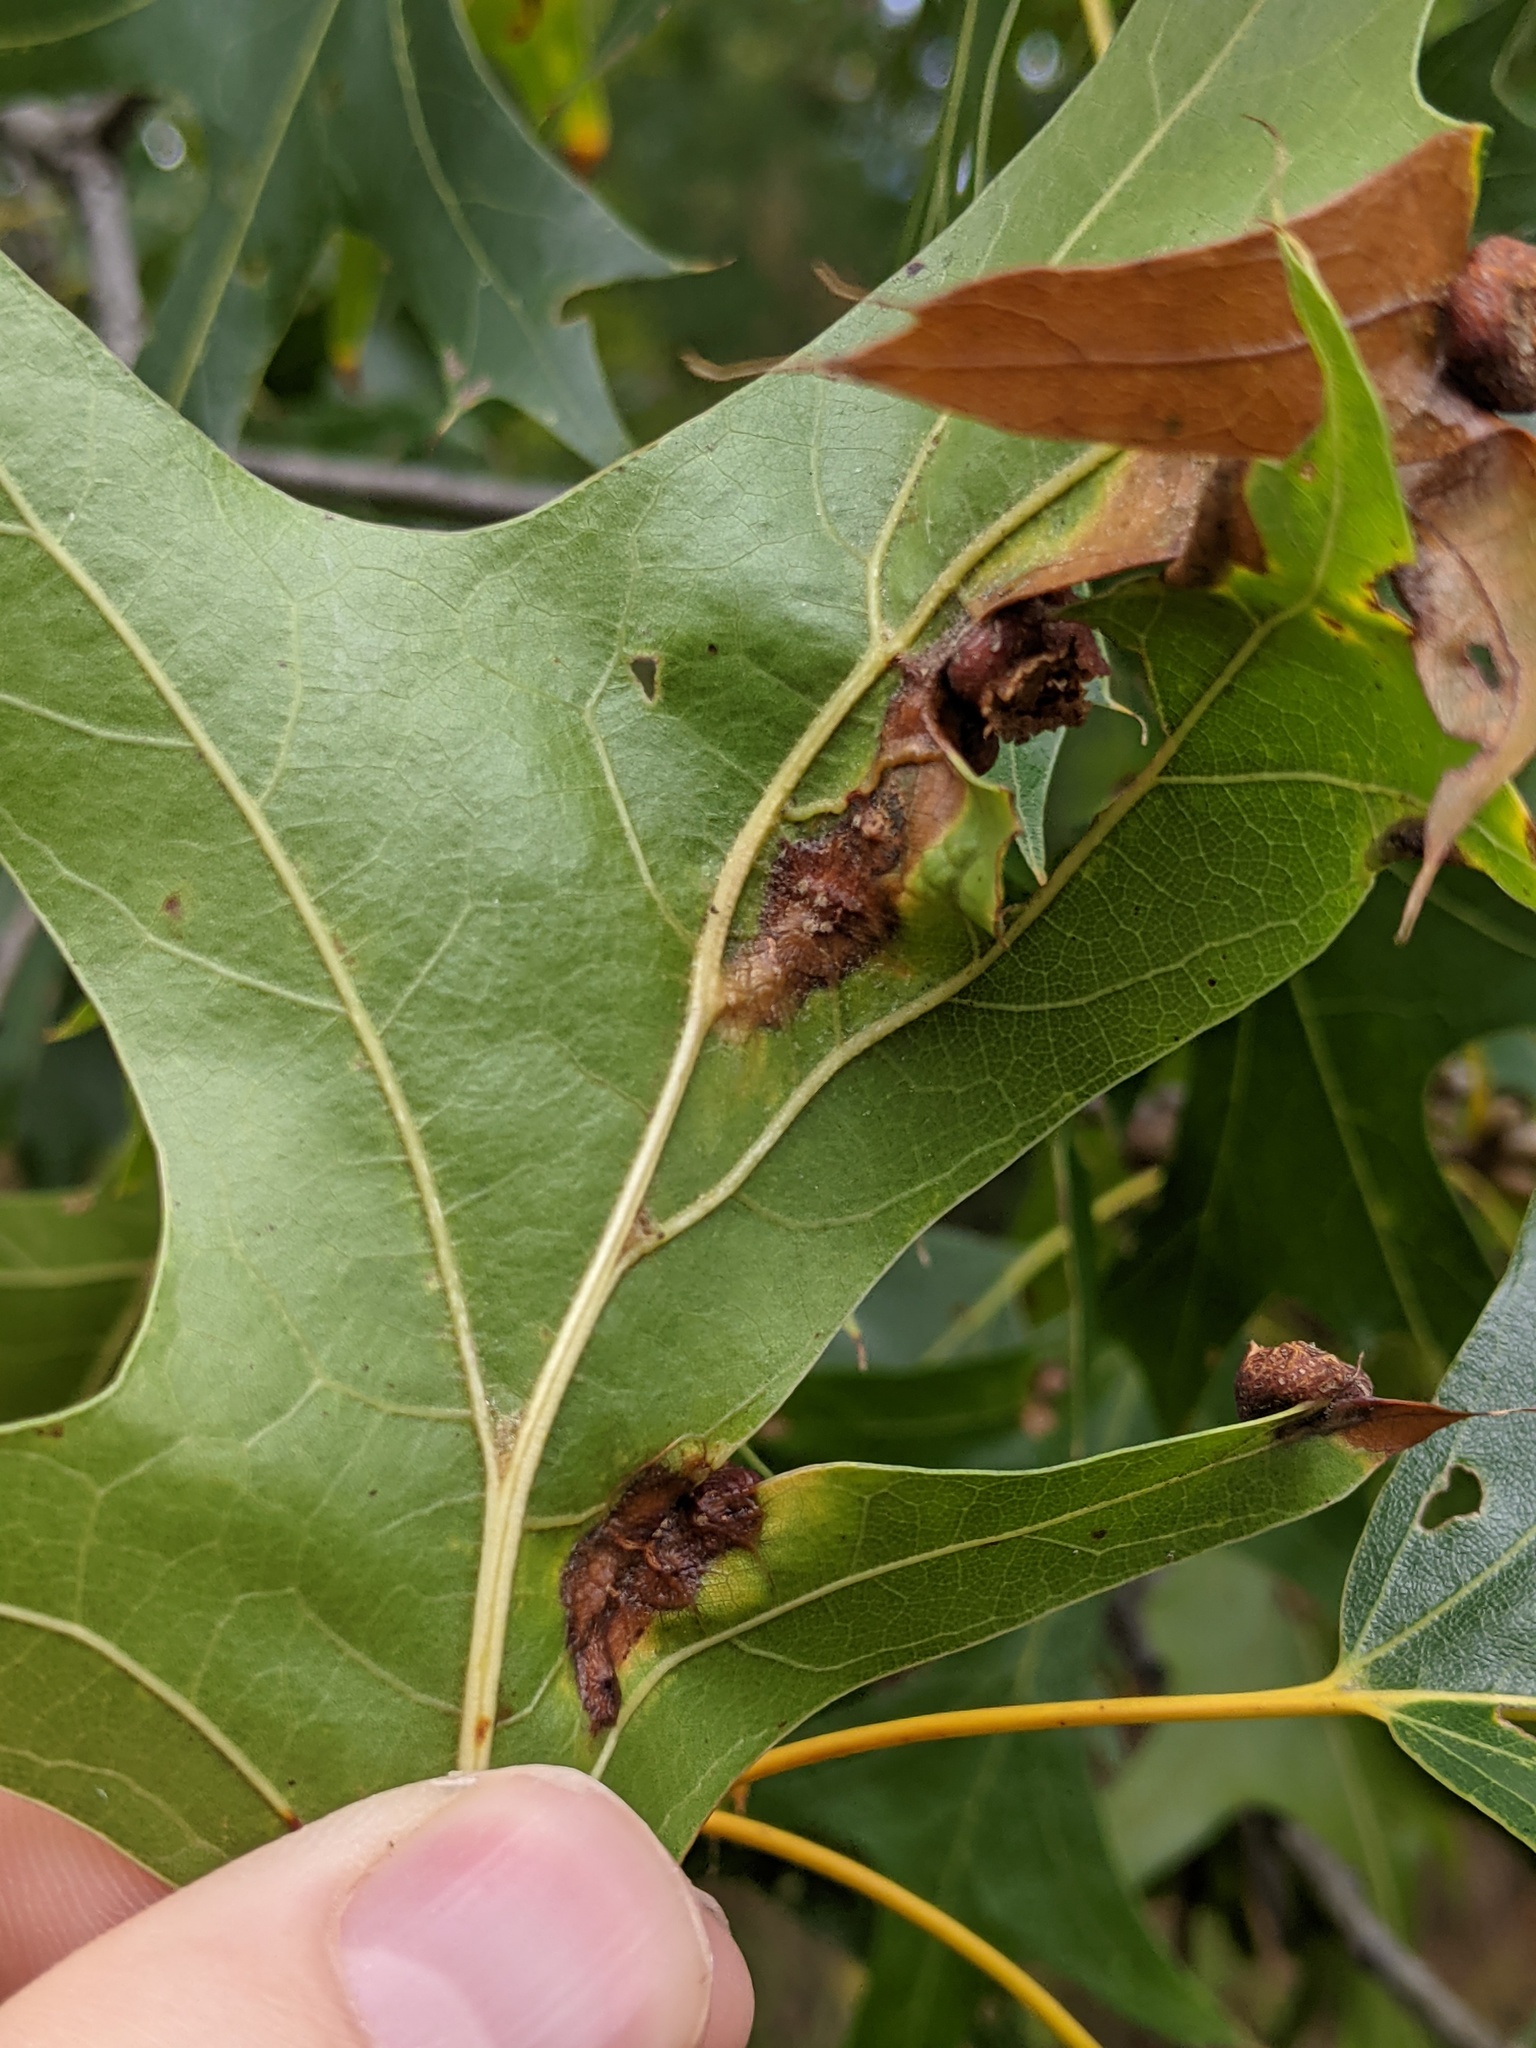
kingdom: Animalia
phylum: Arthropoda
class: Insecta
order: Diptera
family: Cecidomyiidae
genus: Polystepha
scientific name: Polystepha pilulae
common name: Oak leaf gall midge
